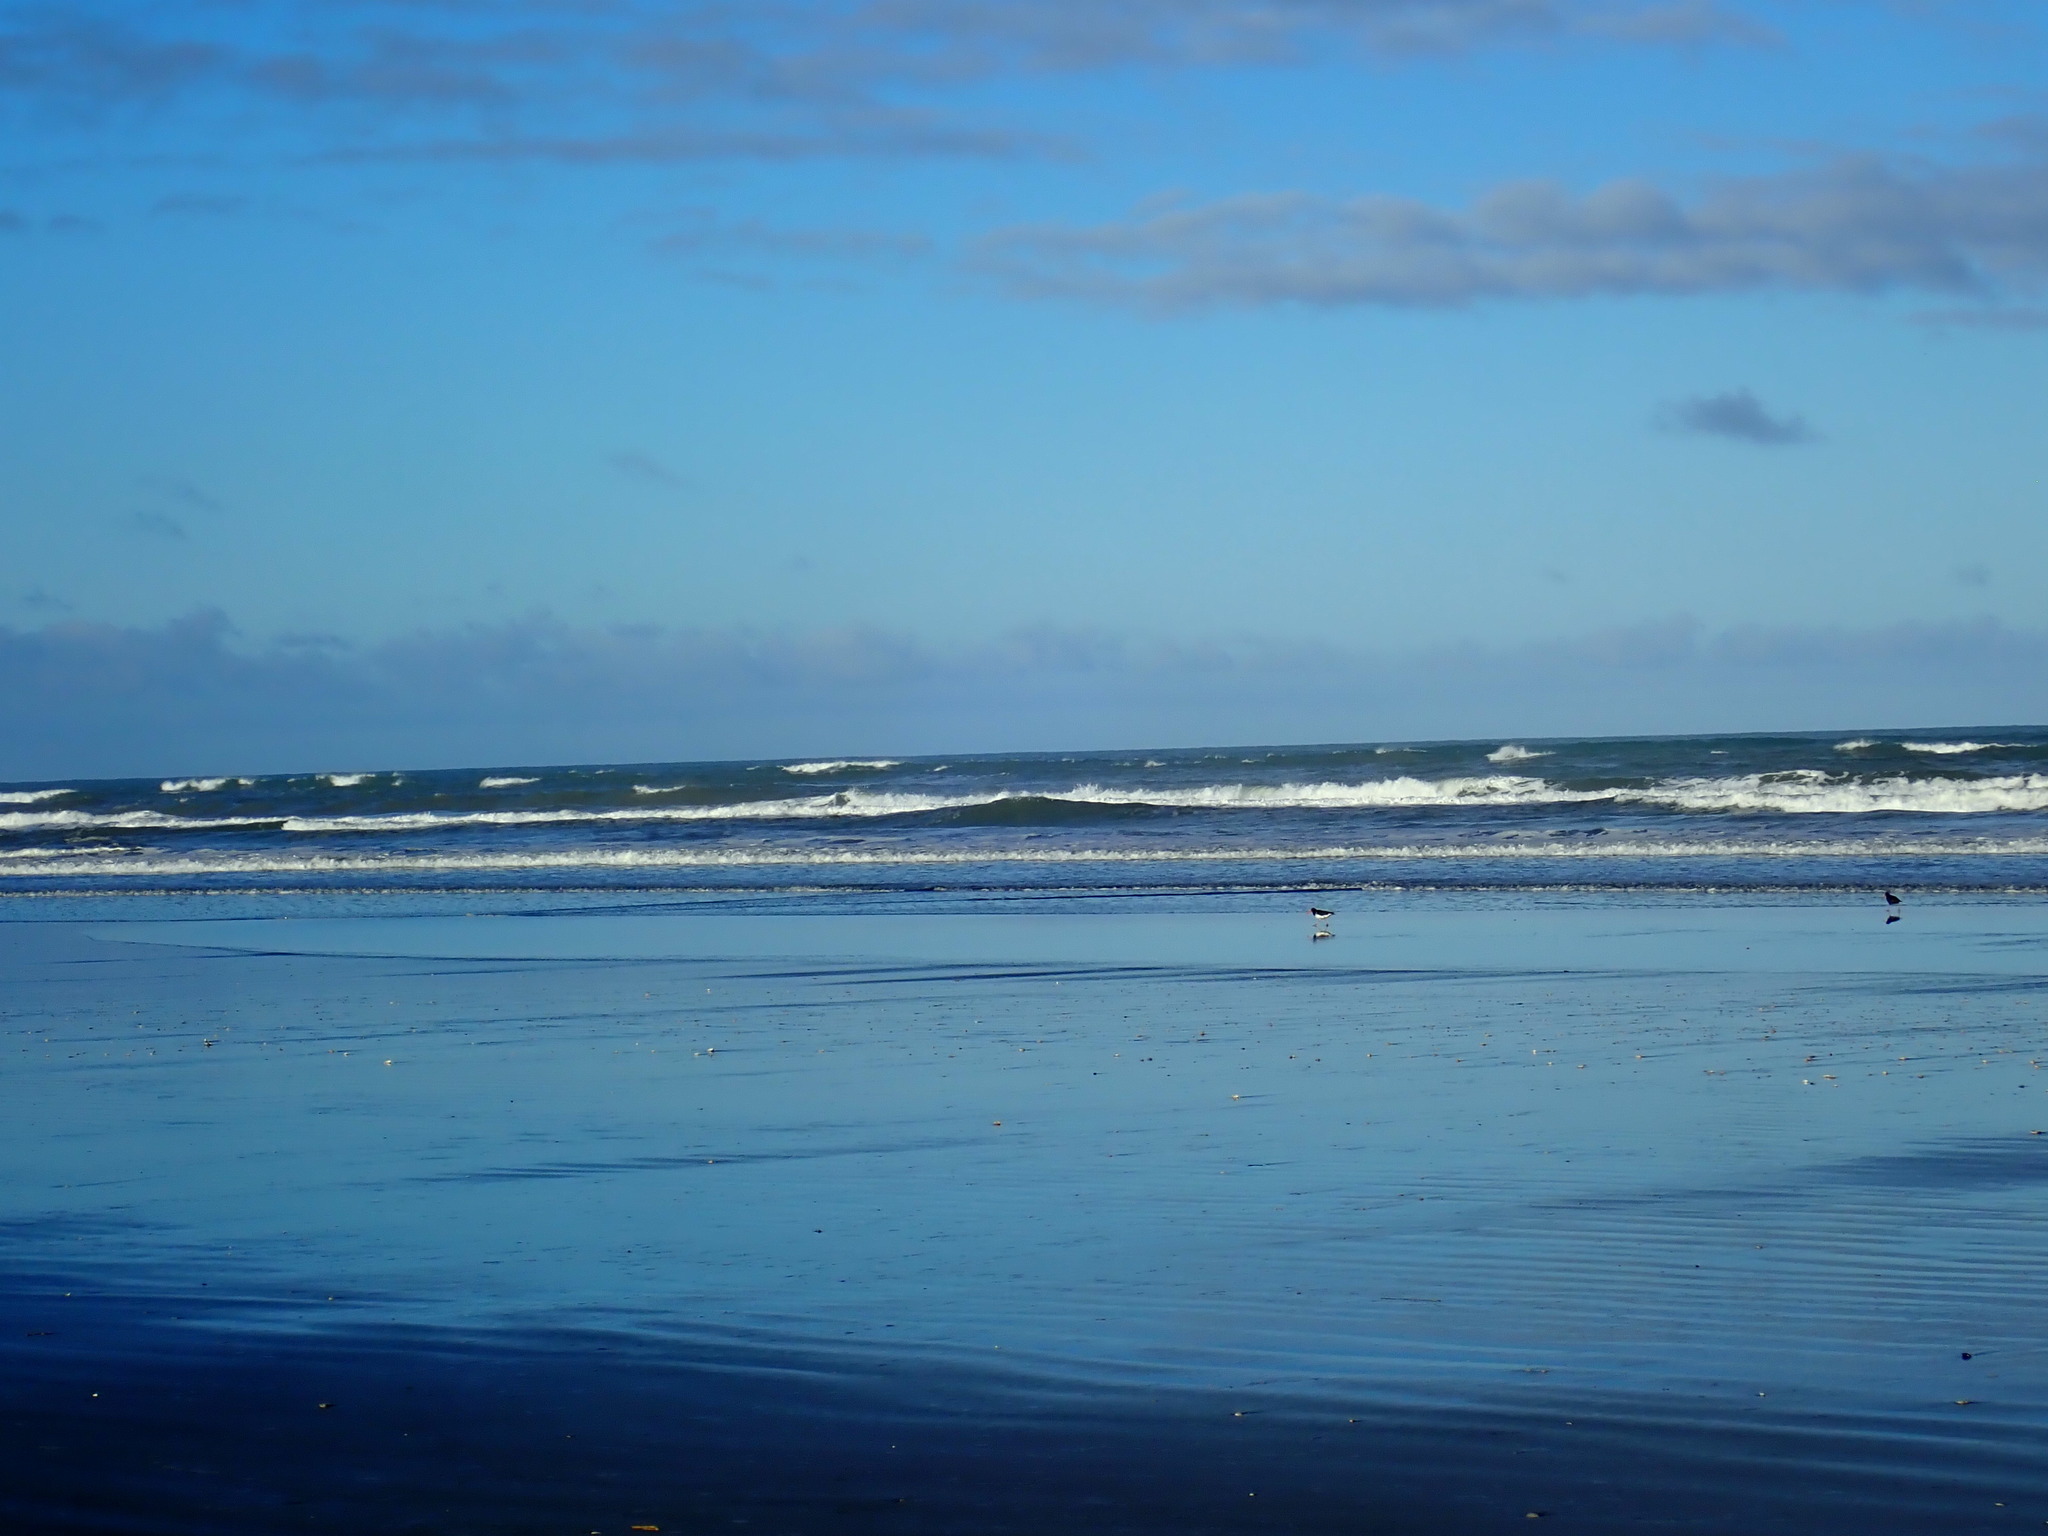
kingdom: Animalia
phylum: Chordata
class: Aves
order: Charadriiformes
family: Haematopodidae
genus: Haematopus
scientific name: Haematopus finschi
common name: South island oystercatcher
